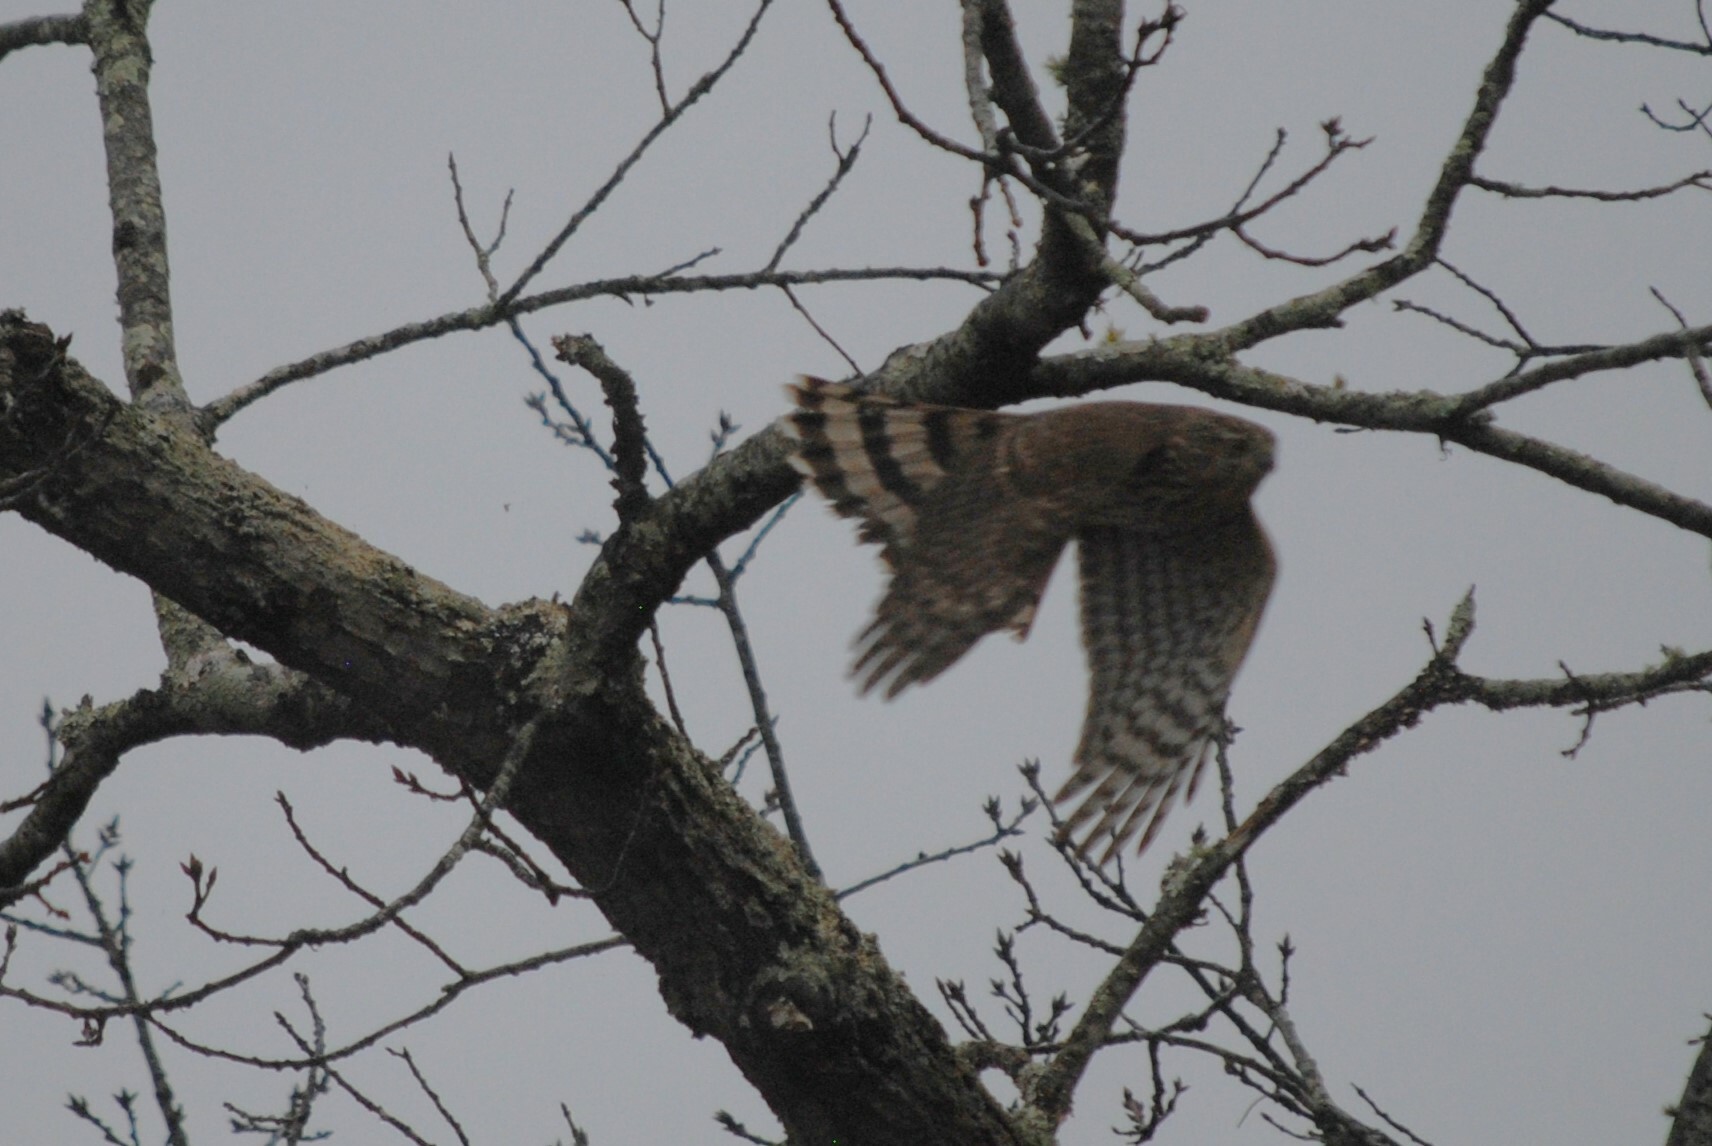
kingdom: Animalia
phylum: Chordata
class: Aves
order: Accipitriformes
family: Accipitridae
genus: Accipiter
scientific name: Accipiter cooperii
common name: Cooper's hawk
